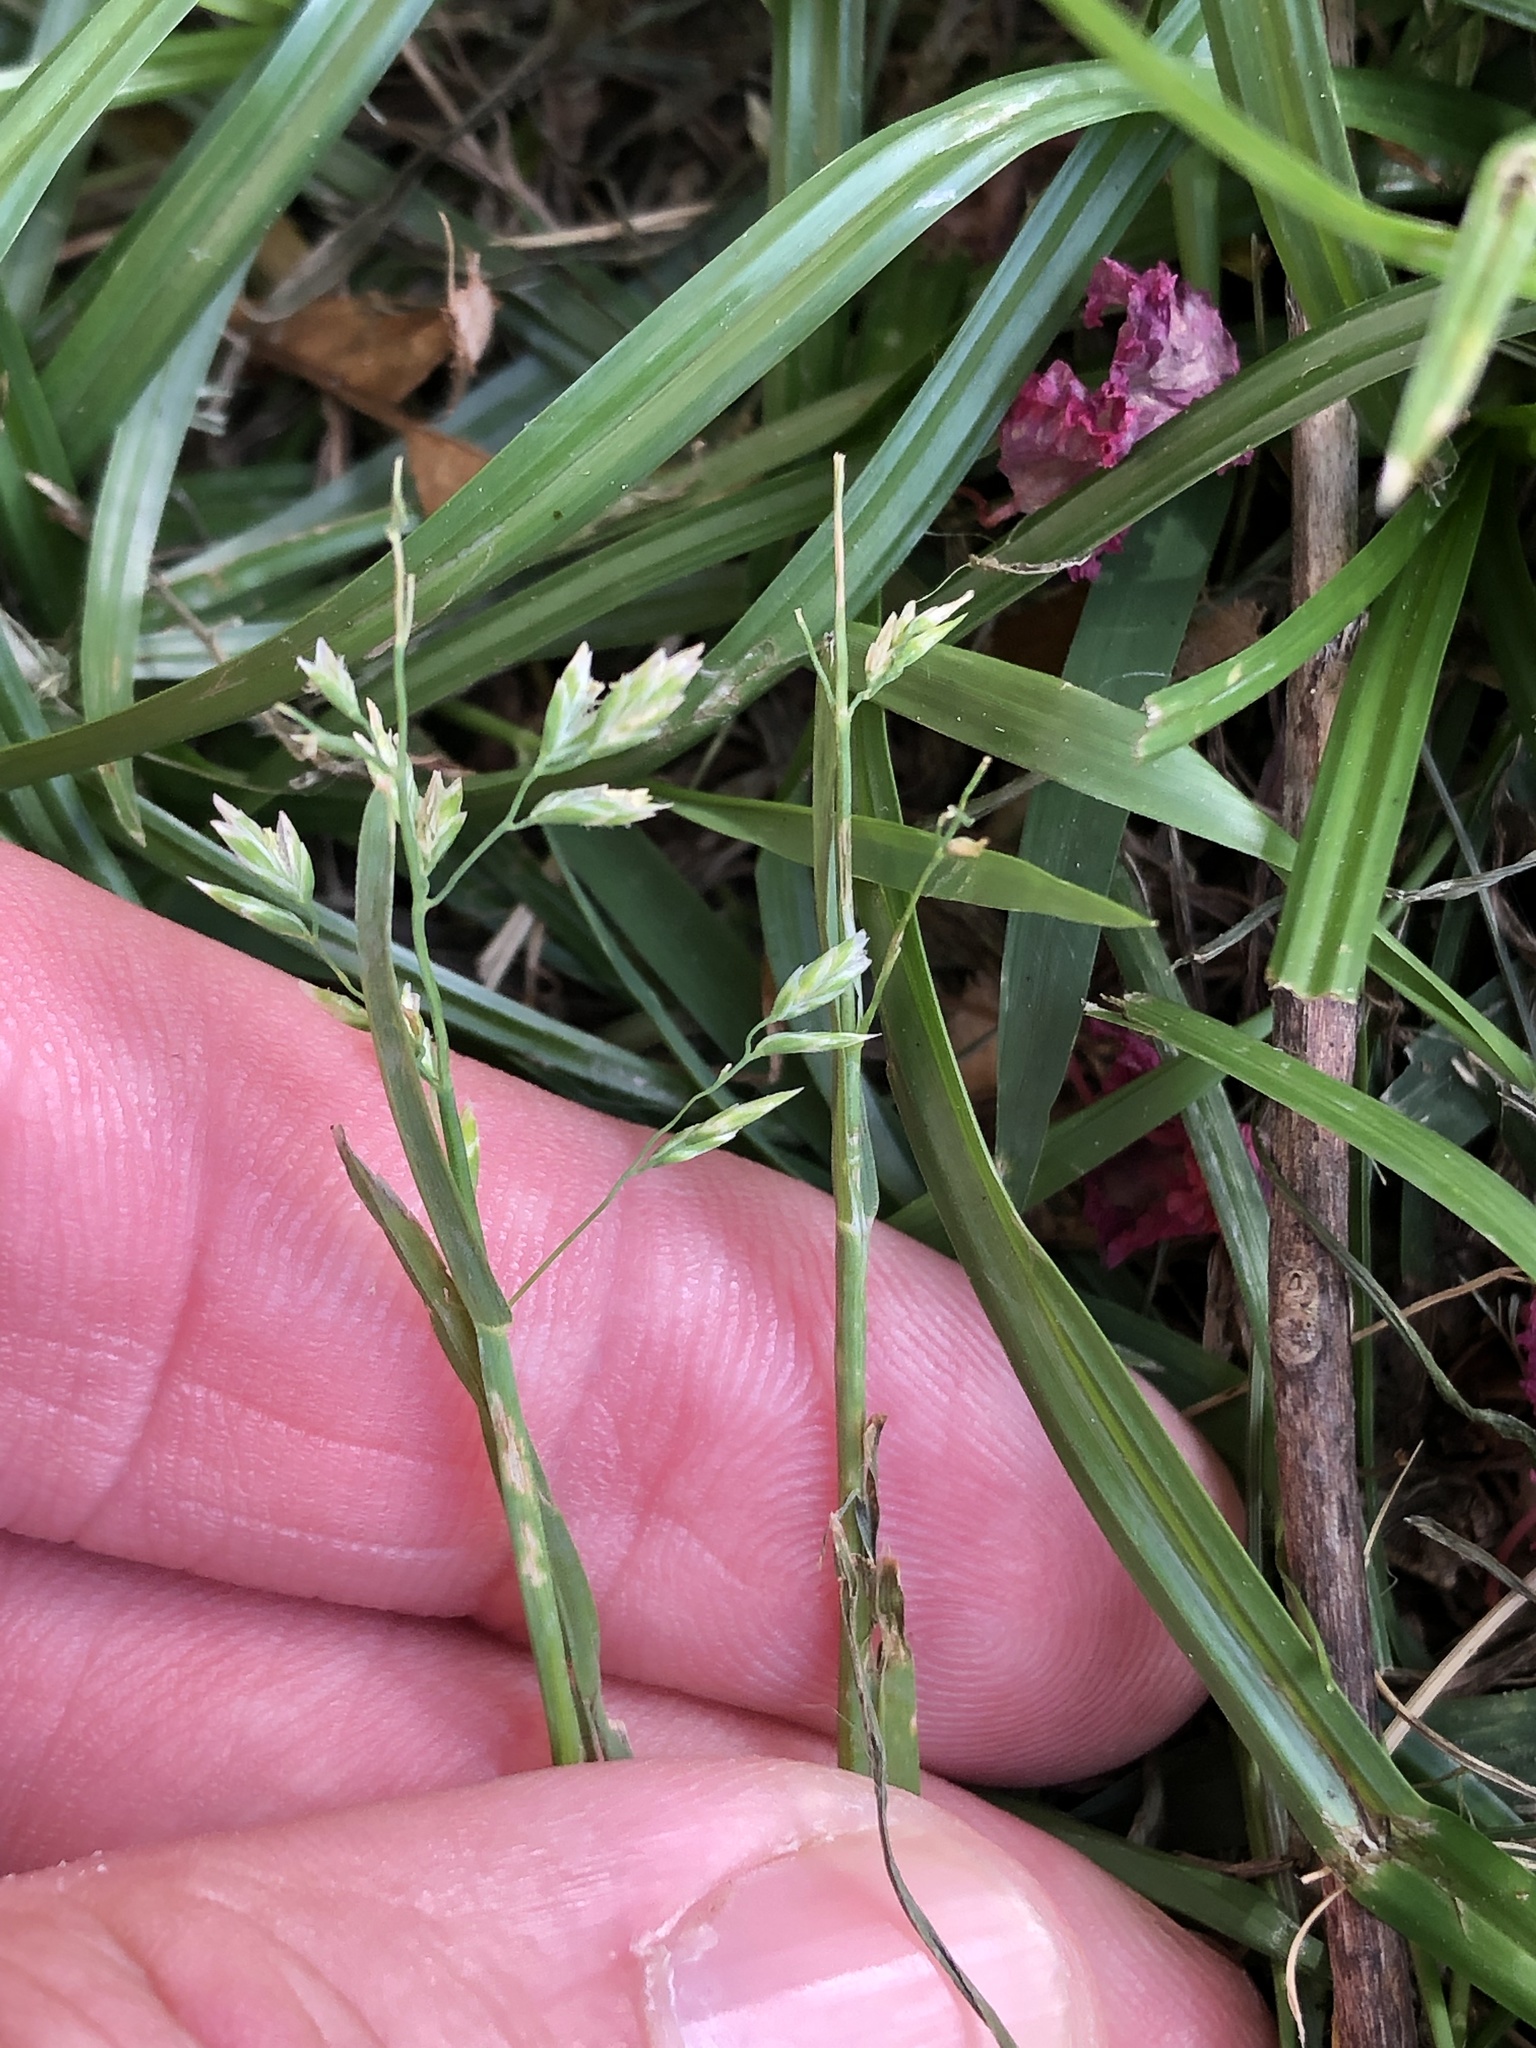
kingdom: Plantae
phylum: Tracheophyta
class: Liliopsida
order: Poales
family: Poaceae
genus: Poa
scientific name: Poa annua
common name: Annual bluegrass
